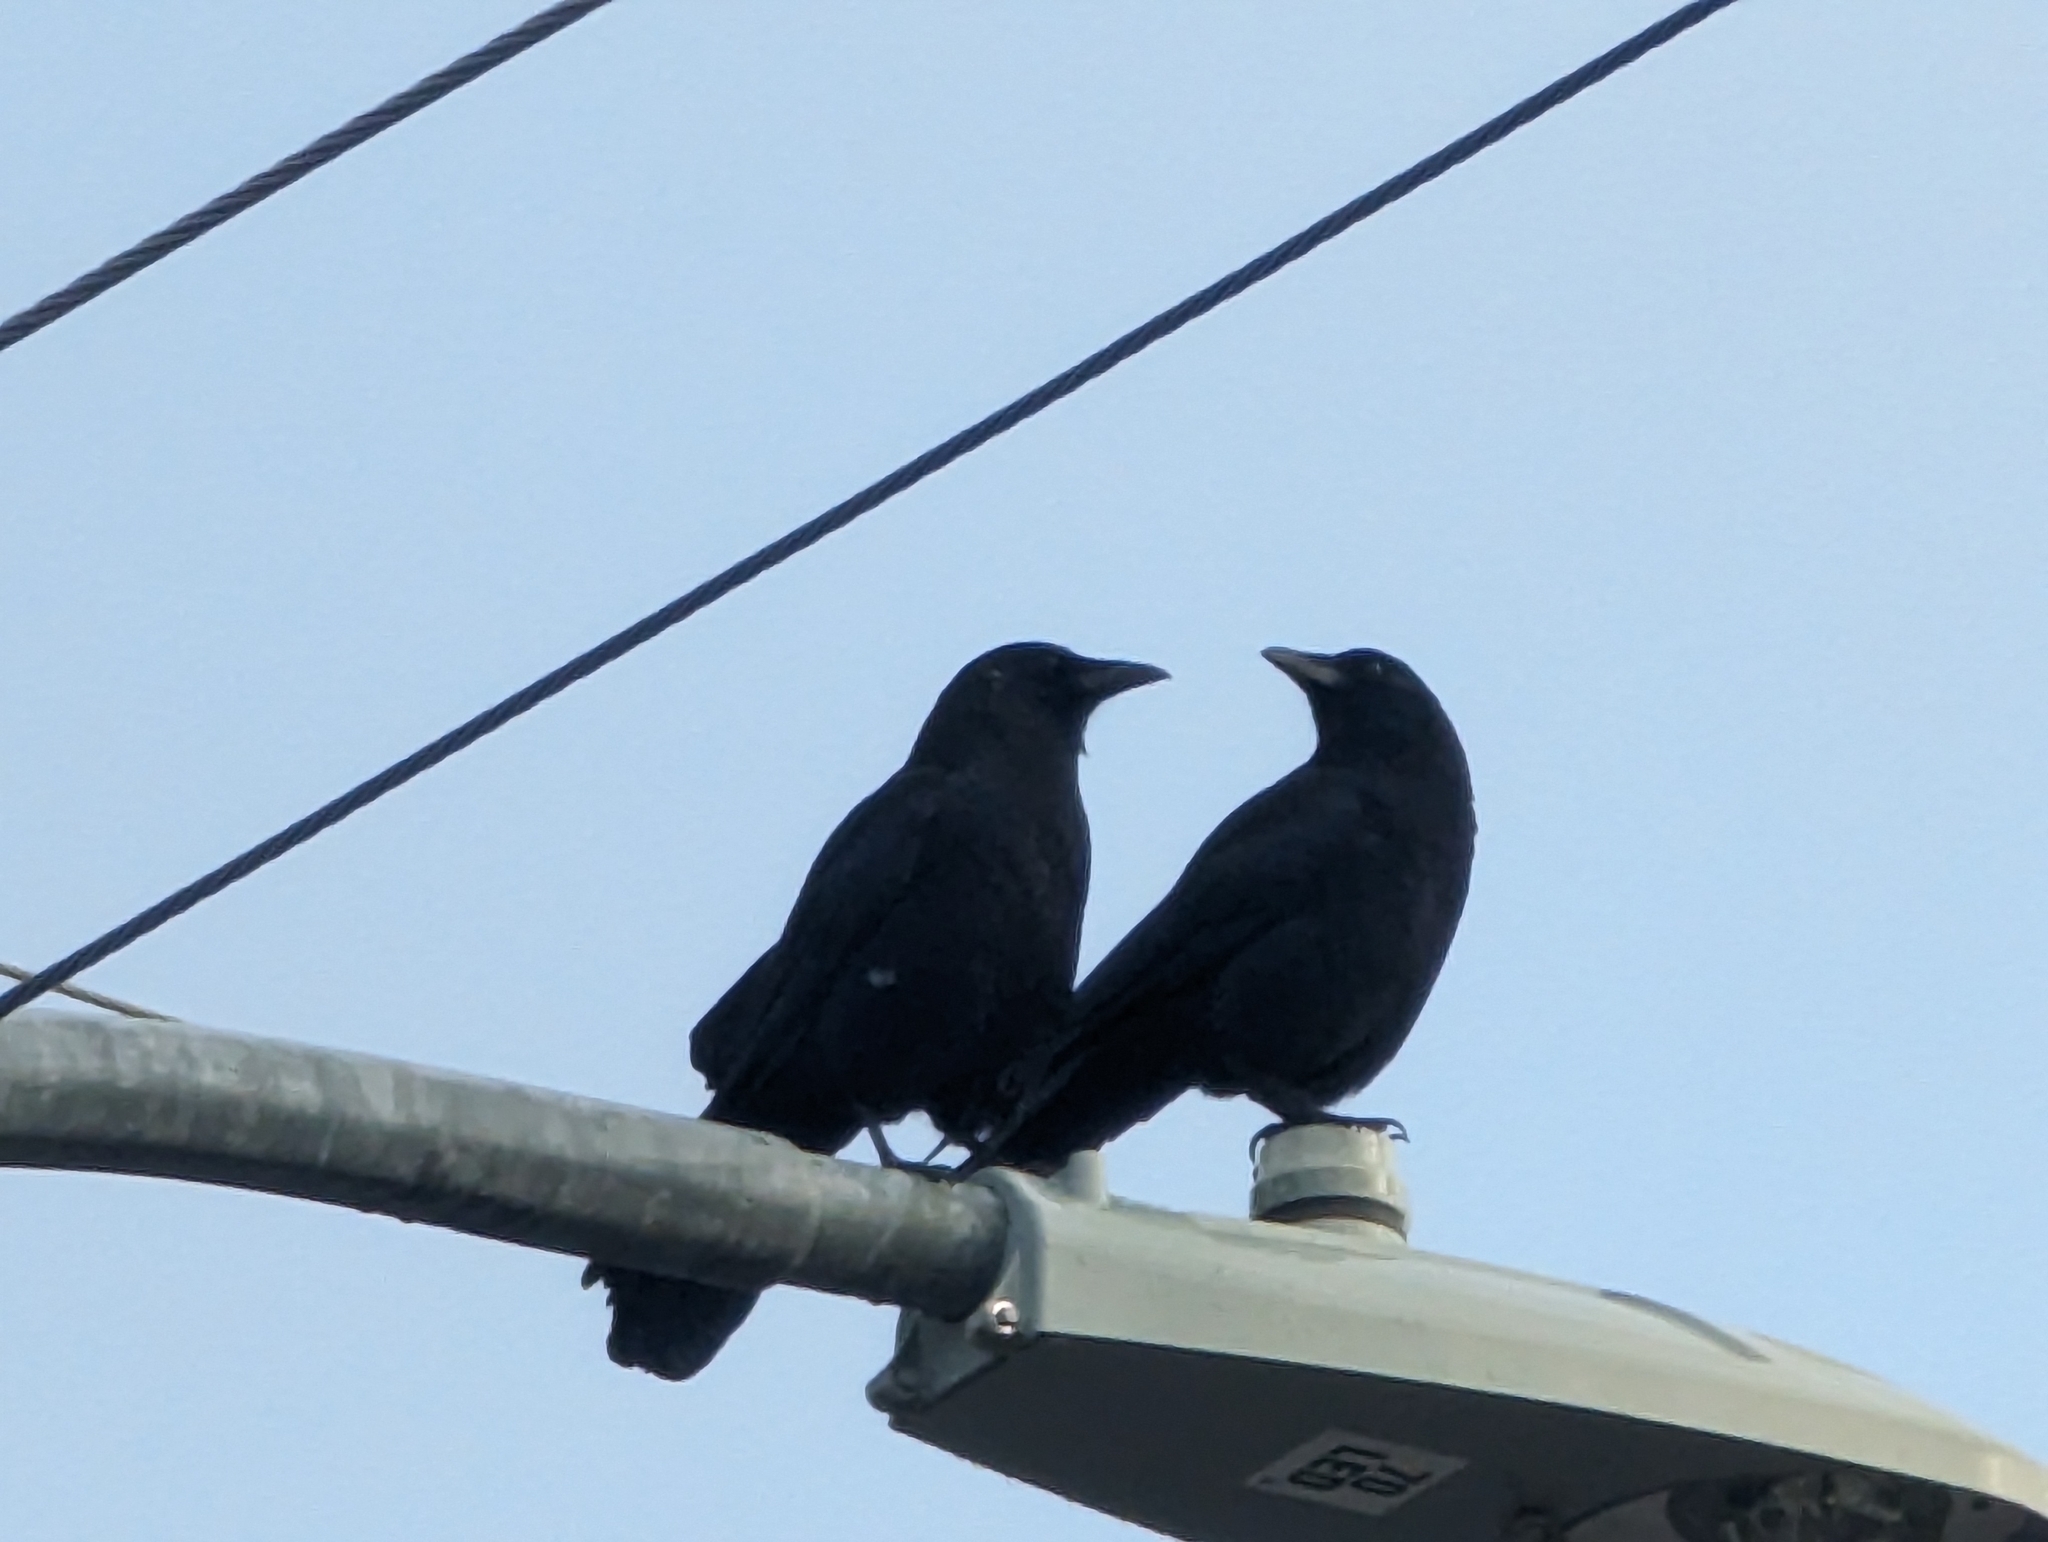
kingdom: Animalia
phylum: Chordata
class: Aves
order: Passeriformes
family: Corvidae
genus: Corvus
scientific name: Corvus brachyrhynchos
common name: American crow
